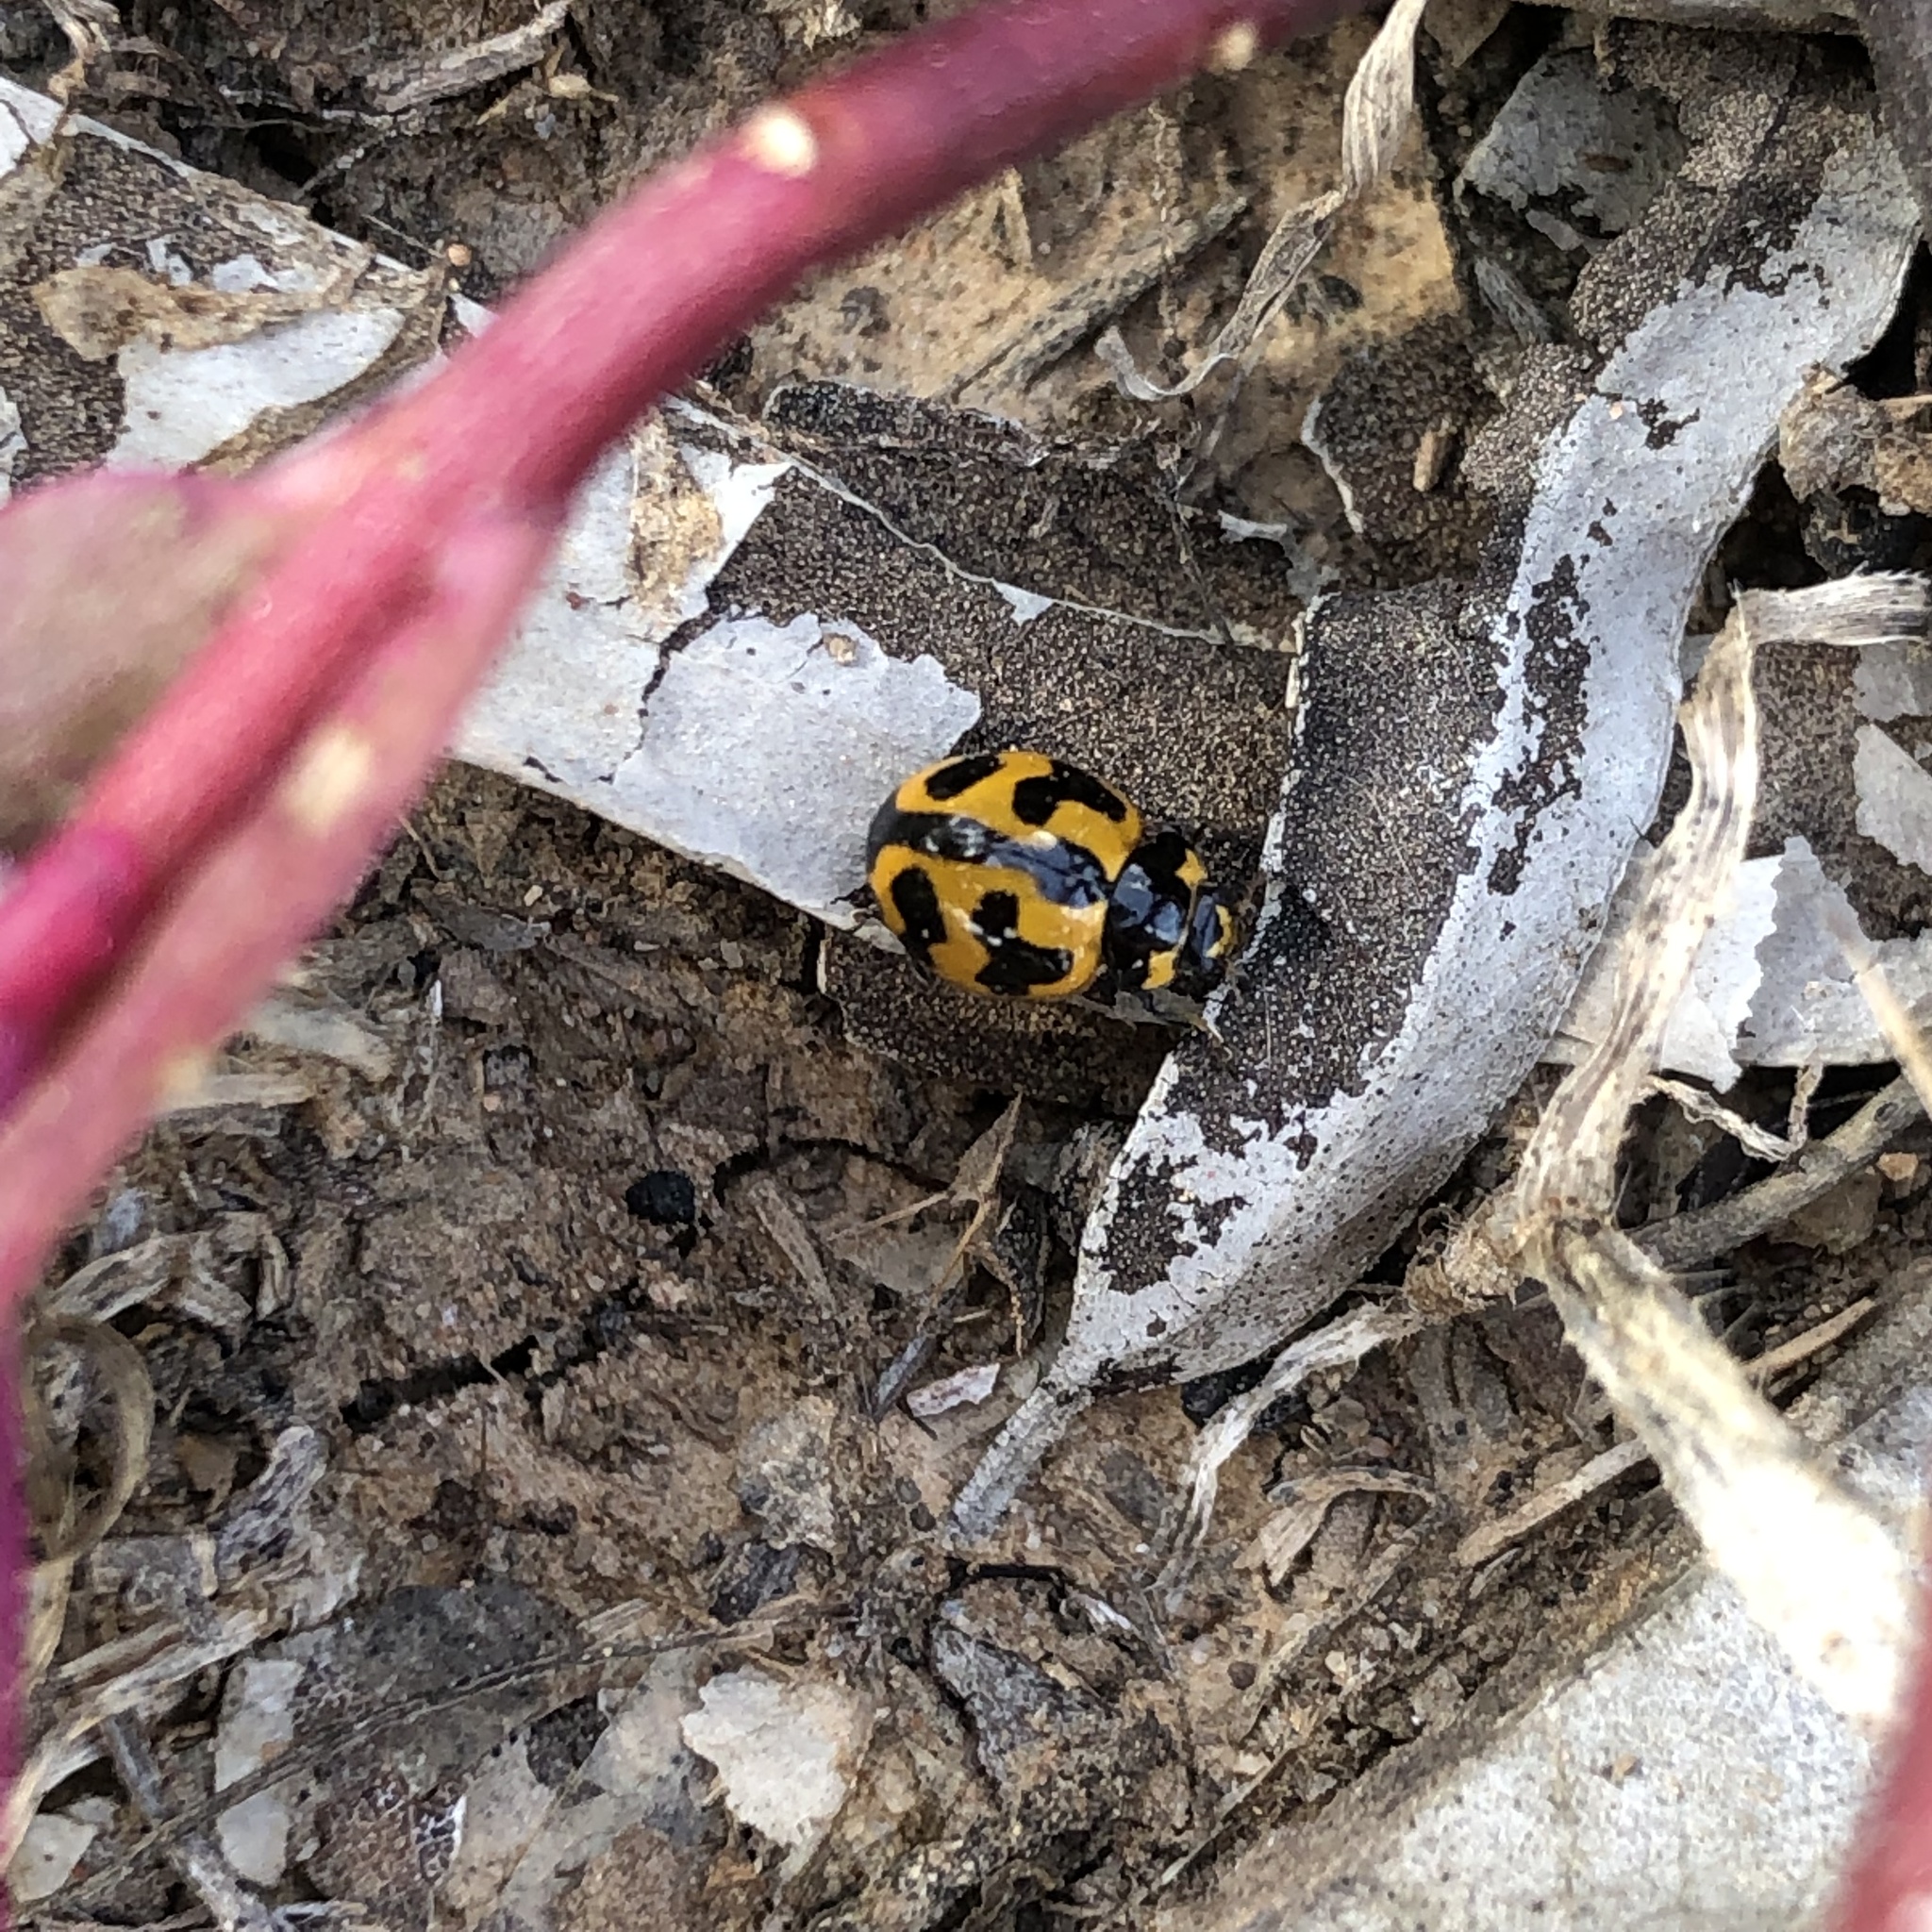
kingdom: Animalia
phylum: Arthropoda
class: Insecta
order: Coleoptera
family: Coccinellidae
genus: Coccinella
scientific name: Coccinella transversalis
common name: Transverse lady beetle
